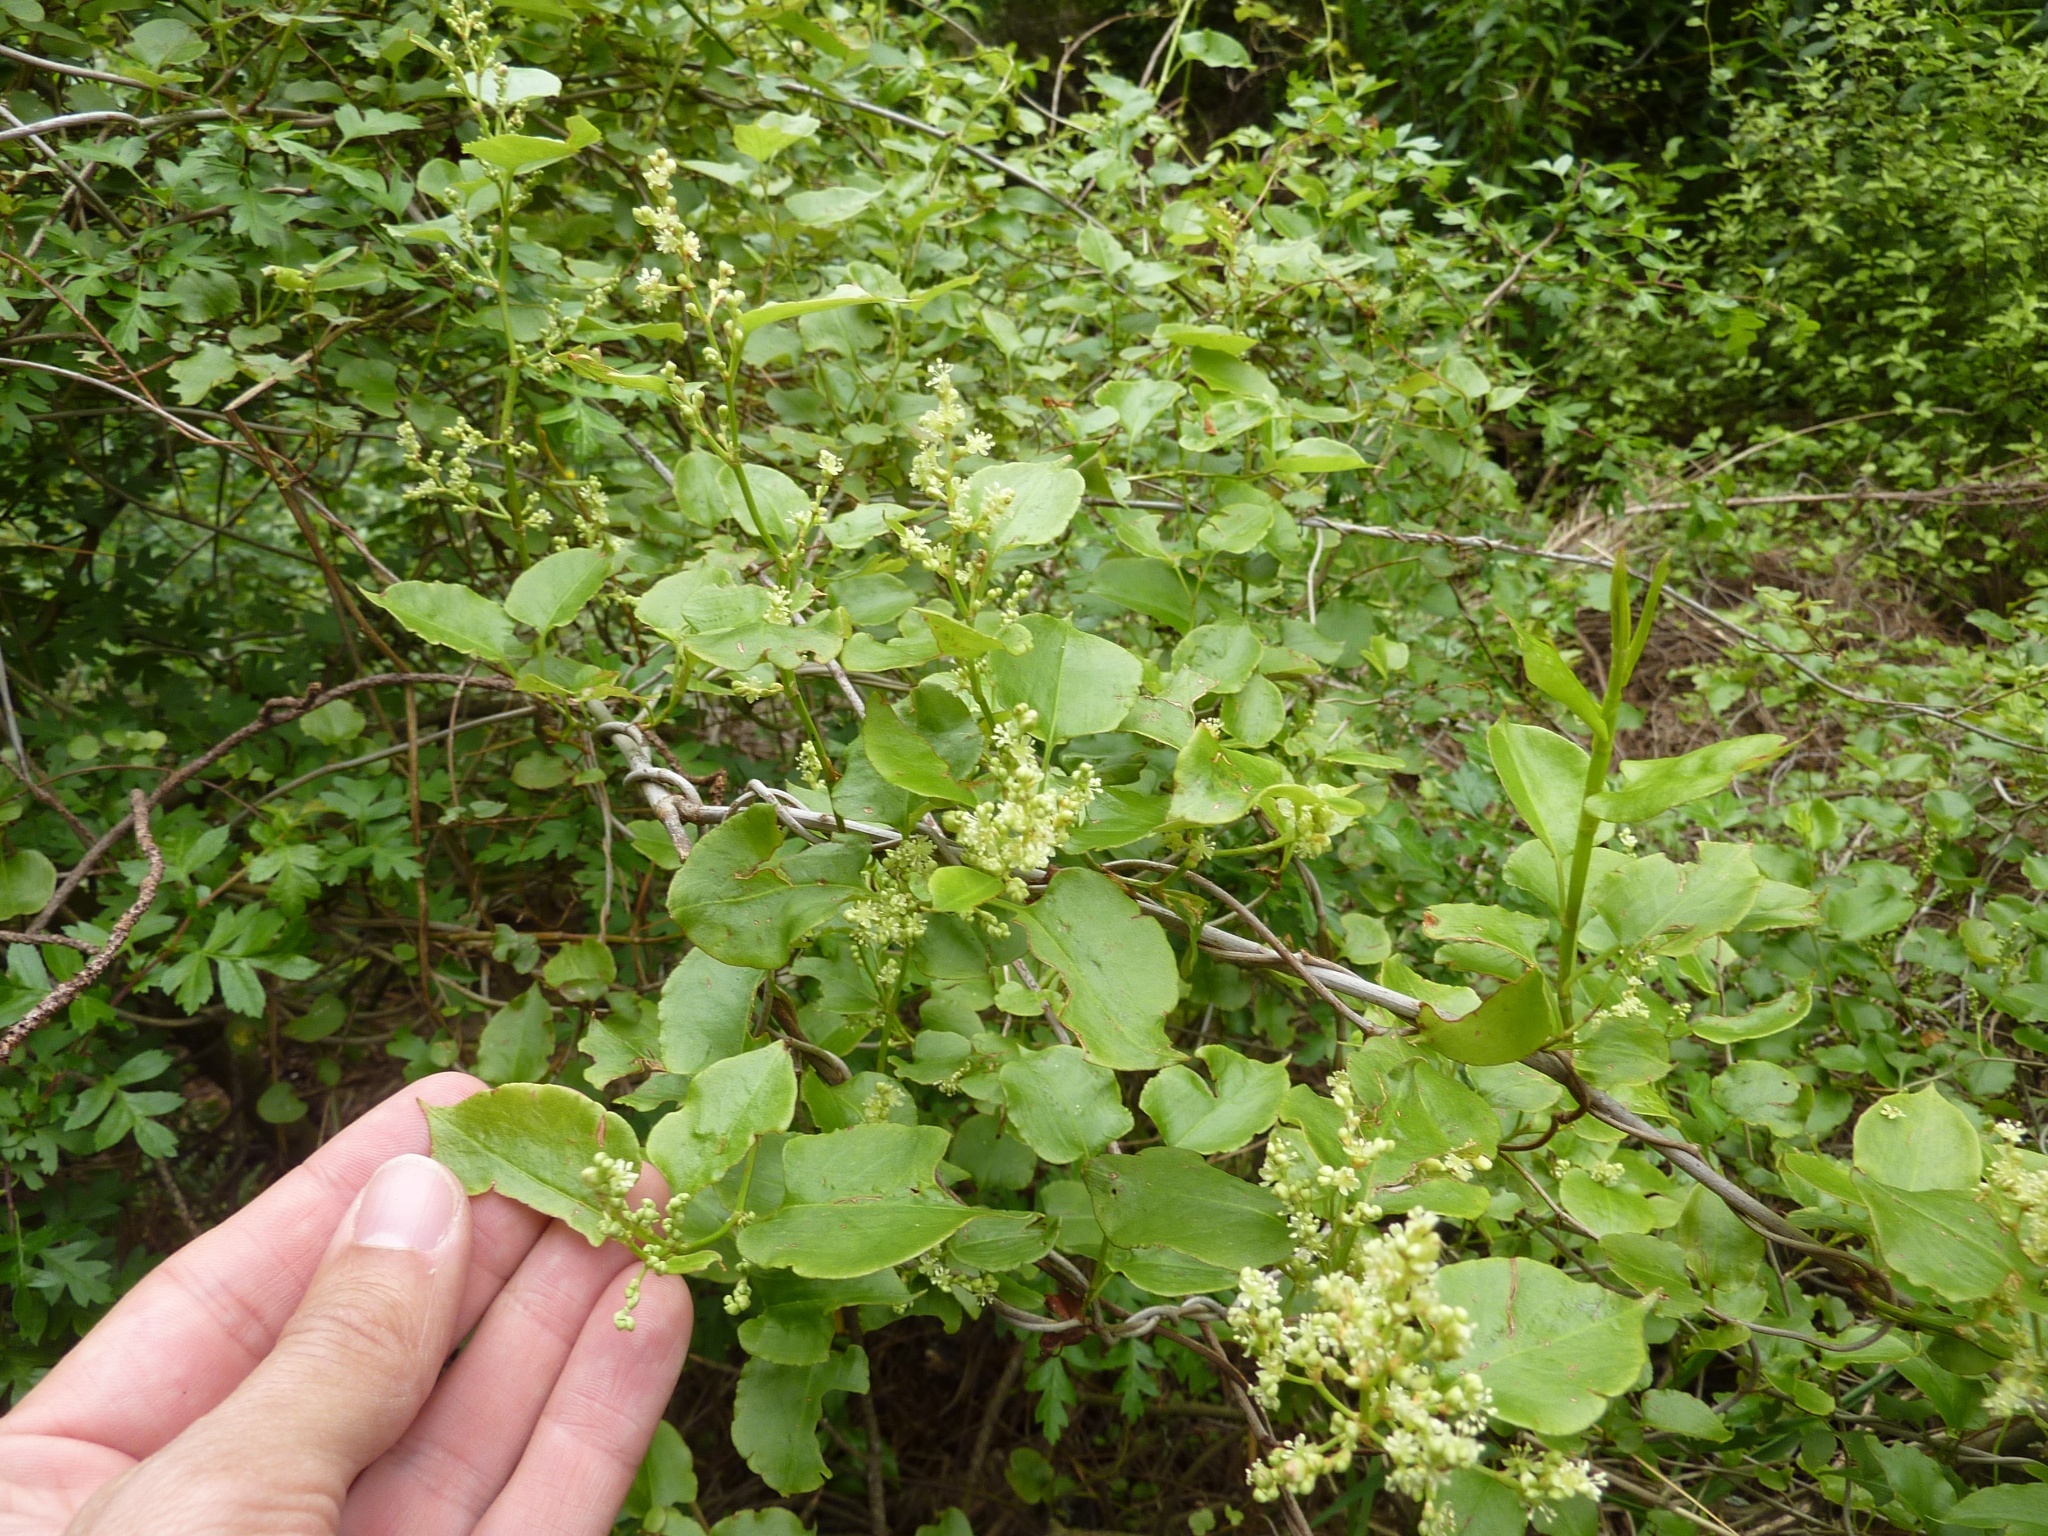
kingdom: Plantae
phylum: Tracheophyta
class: Magnoliopsida
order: Caryophyllales
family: Polygonaceae
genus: Muehlenbeckia
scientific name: Muehlenbeckia australis
